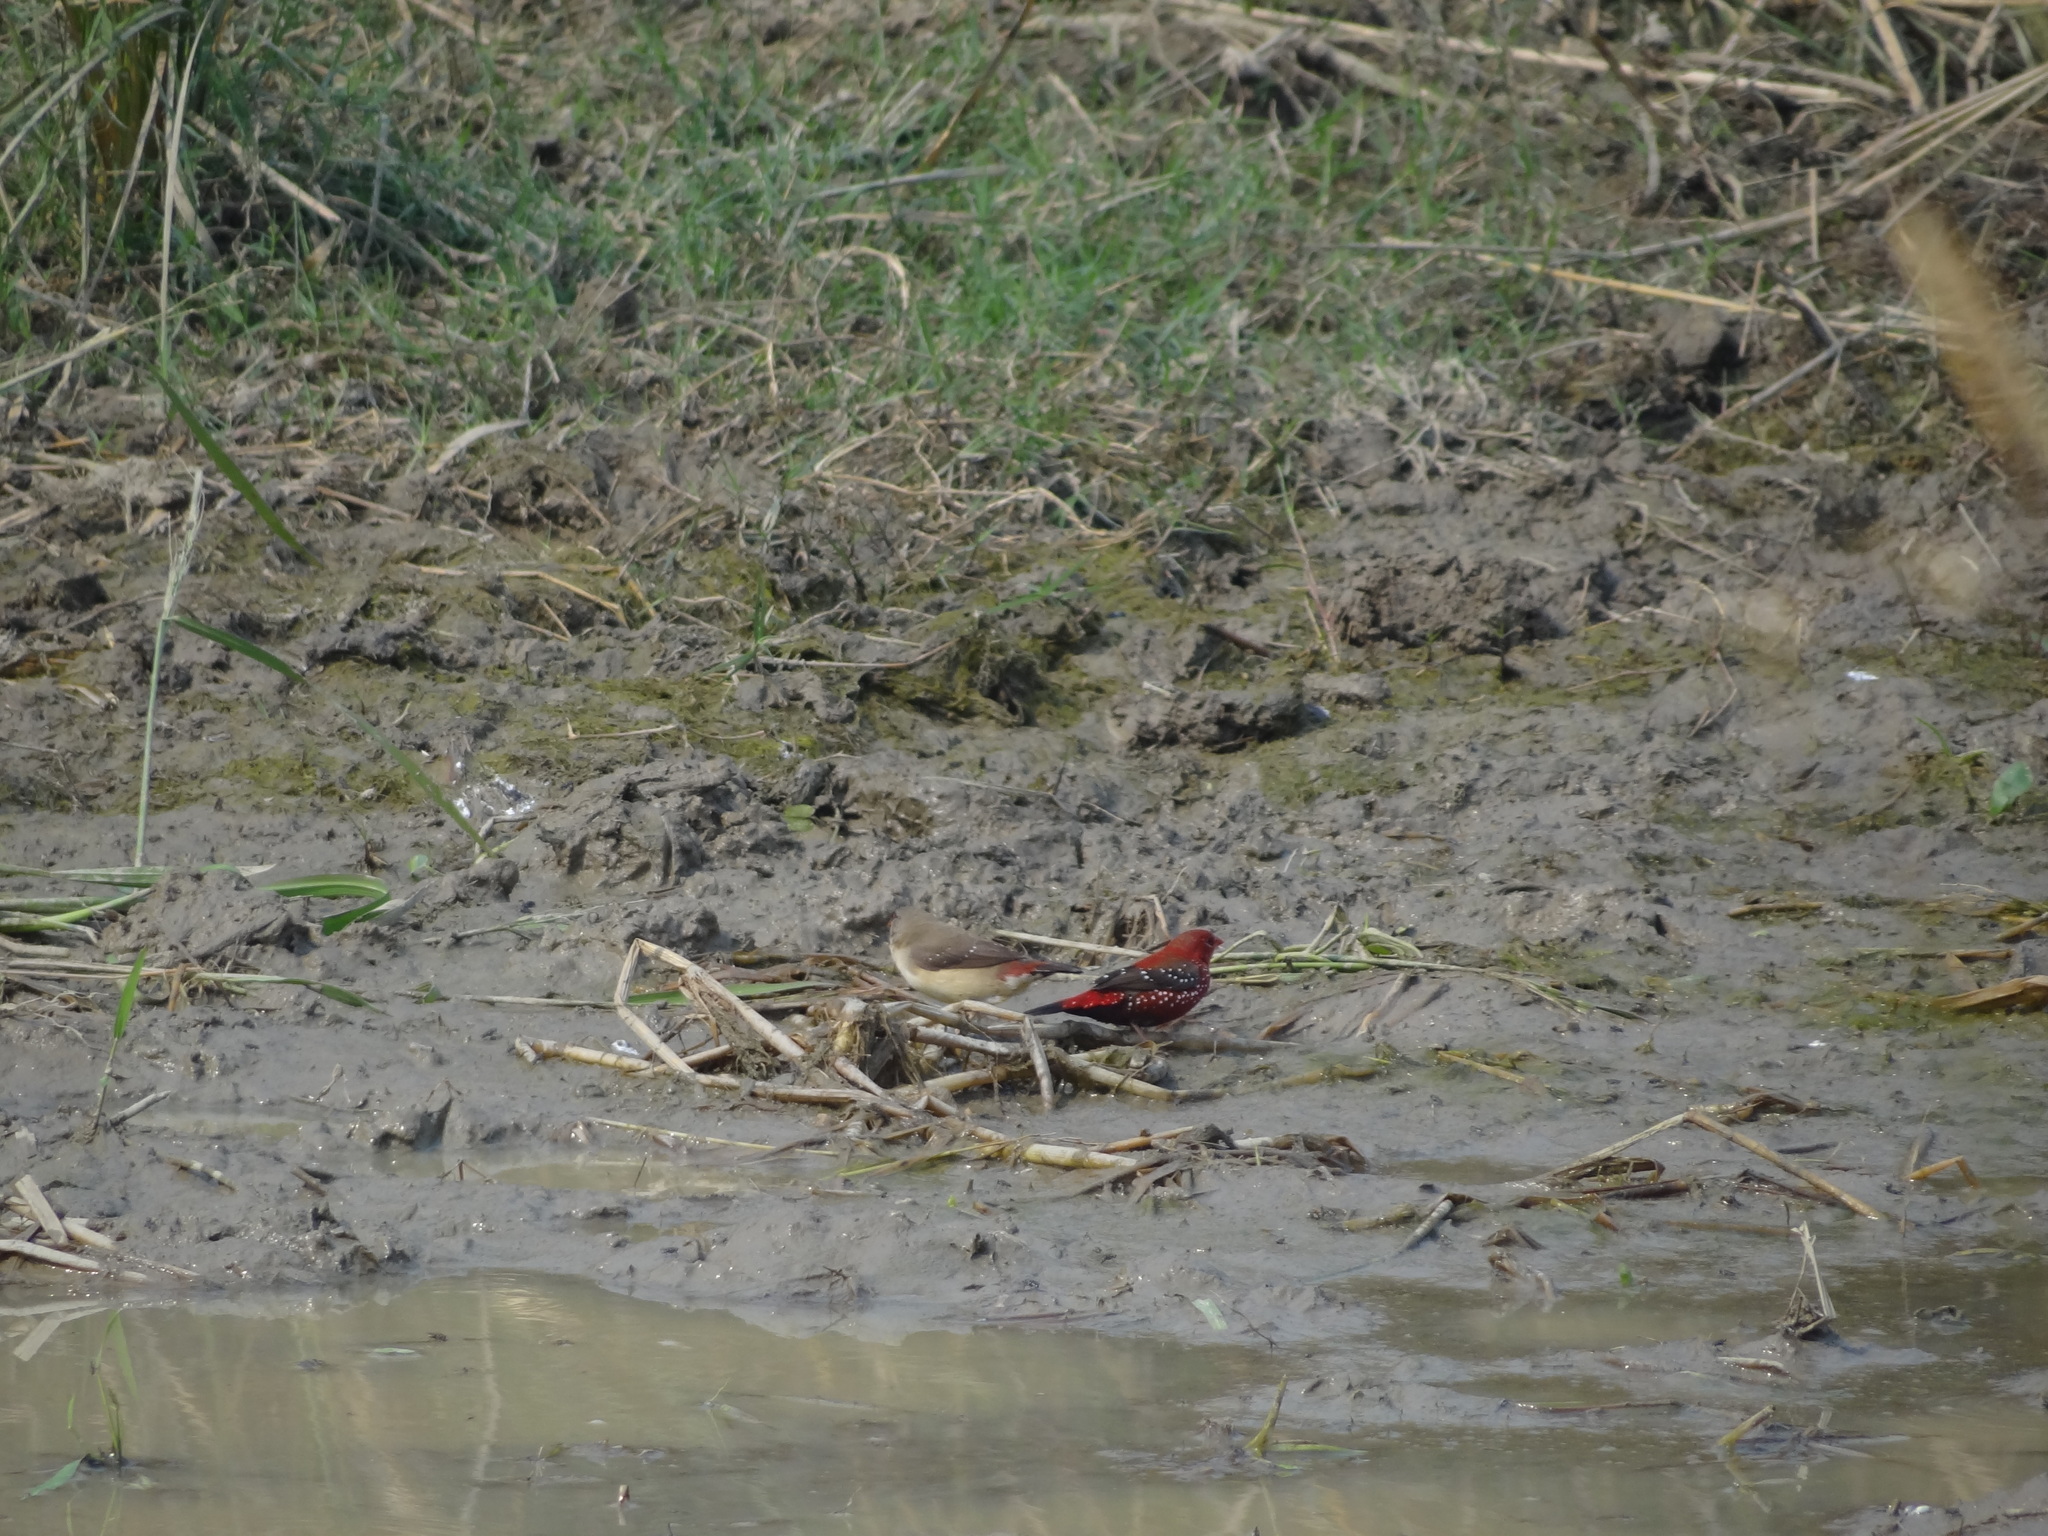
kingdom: Animalia
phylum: Chordata
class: Aves
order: Passeriformes
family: Estrildidae
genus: Amandava
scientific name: Amandava amandava
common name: Red avadavat
